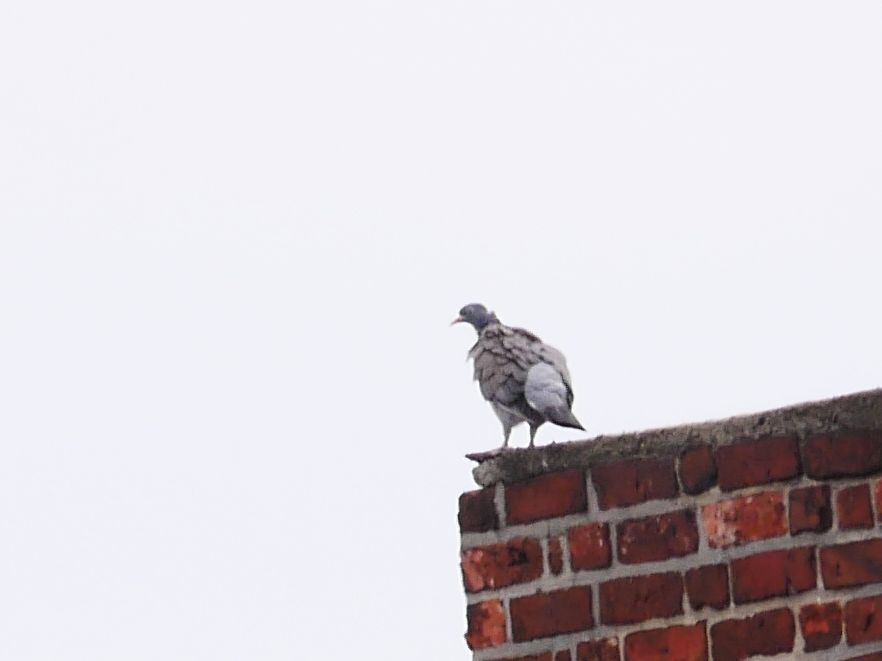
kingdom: Animalia
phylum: Chordata
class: Aves
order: Columbiformes
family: Columbidae
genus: Columba
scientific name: Columba palumbus
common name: Common wood pigeon
